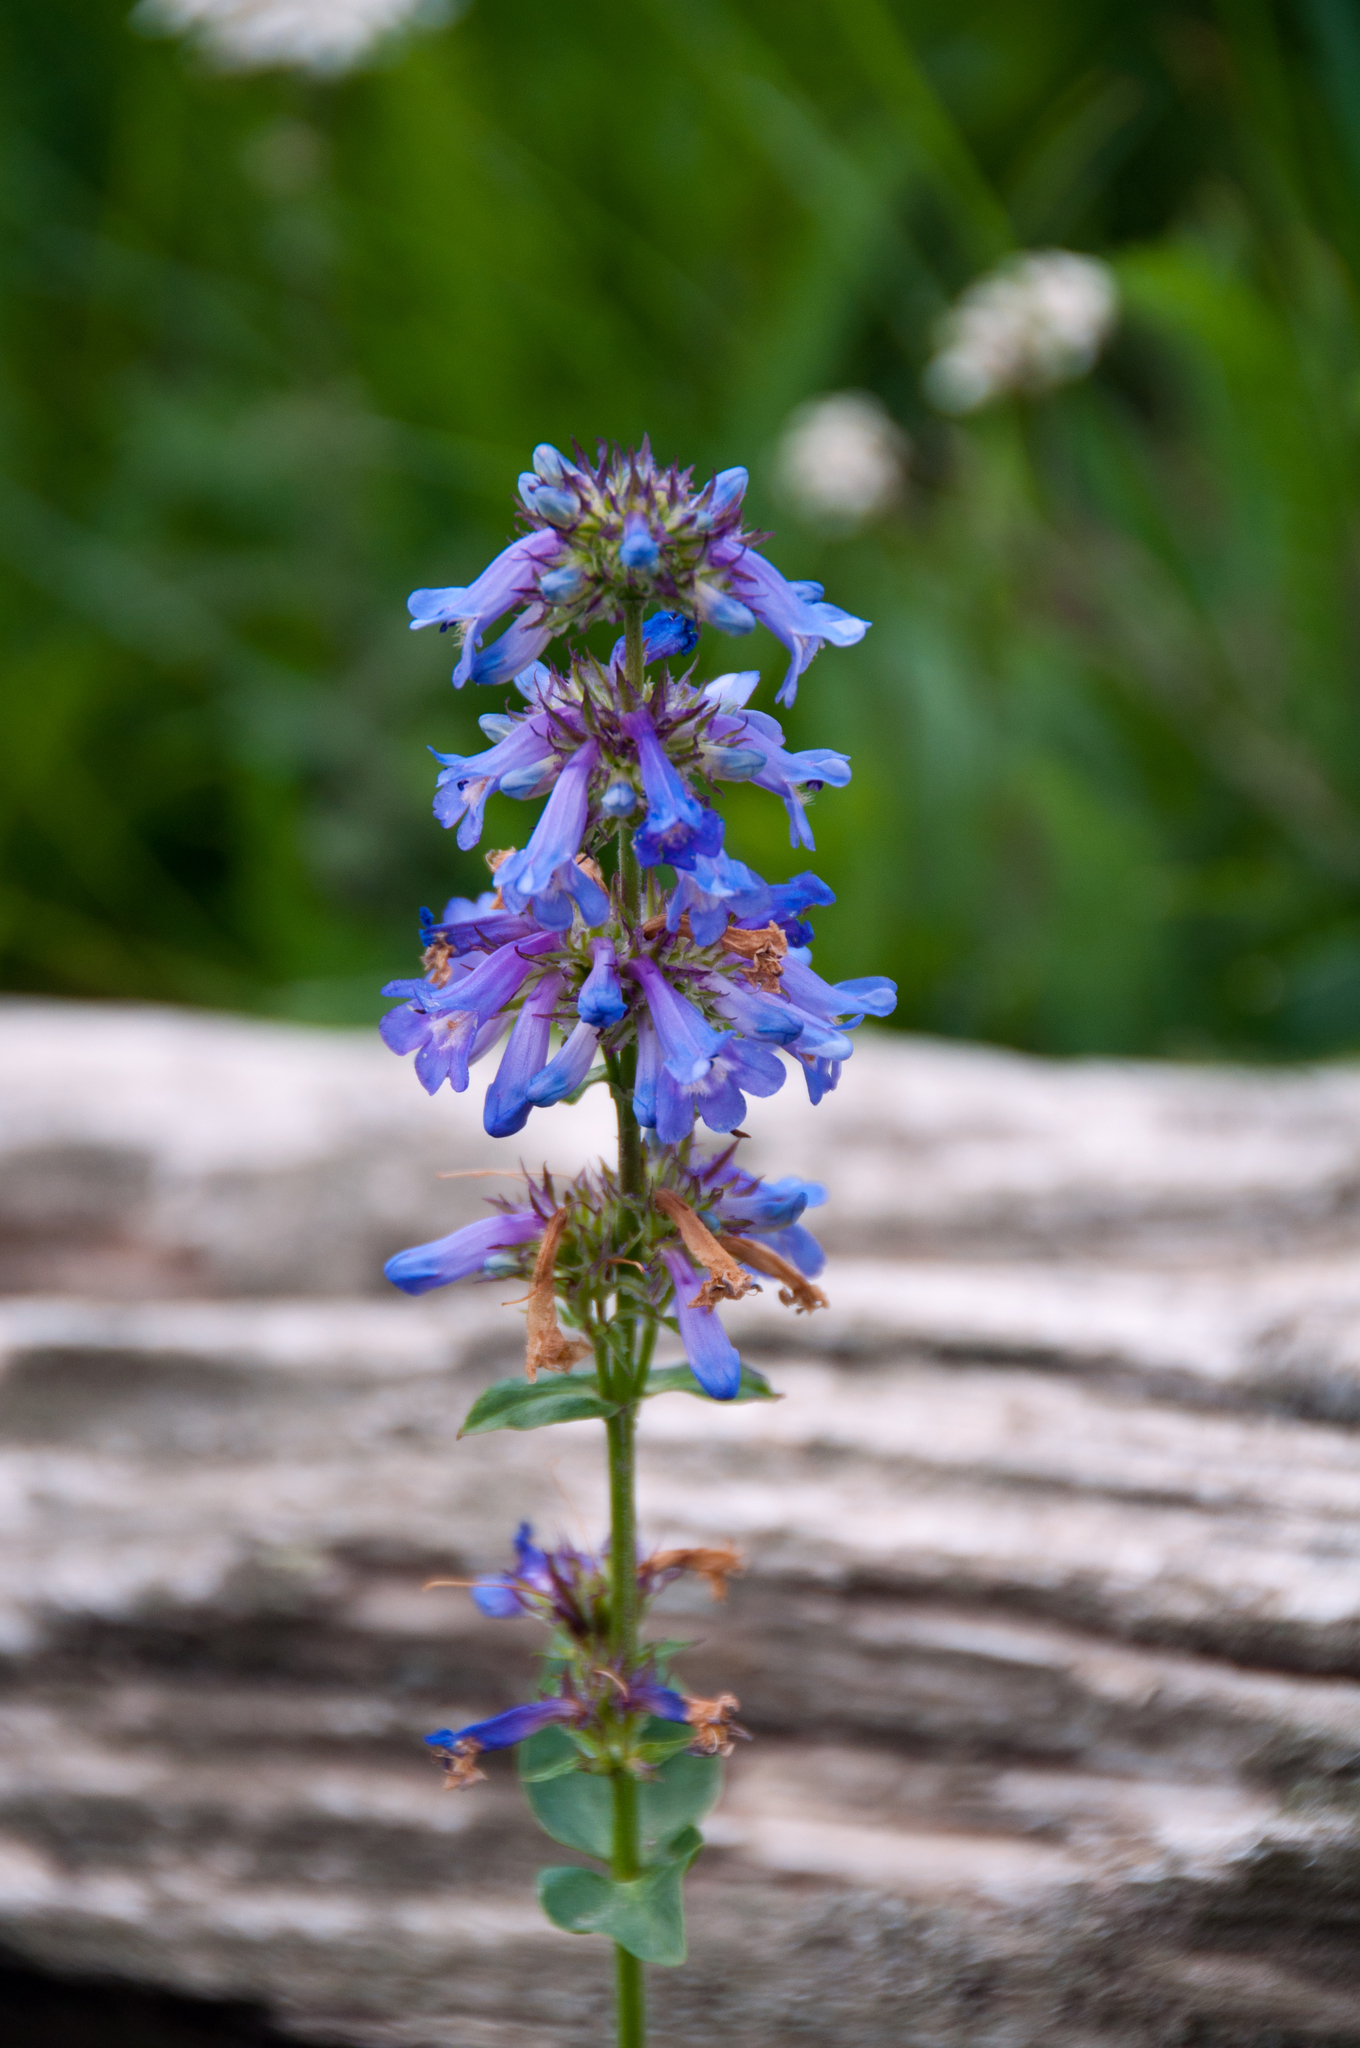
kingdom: Plantae
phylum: Tracheophyta
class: Magnoliopsida
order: Lamiales
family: Plantaginaceae
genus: Penstemon
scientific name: Penstemon rydbergii
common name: Rydberg's beardtongue
